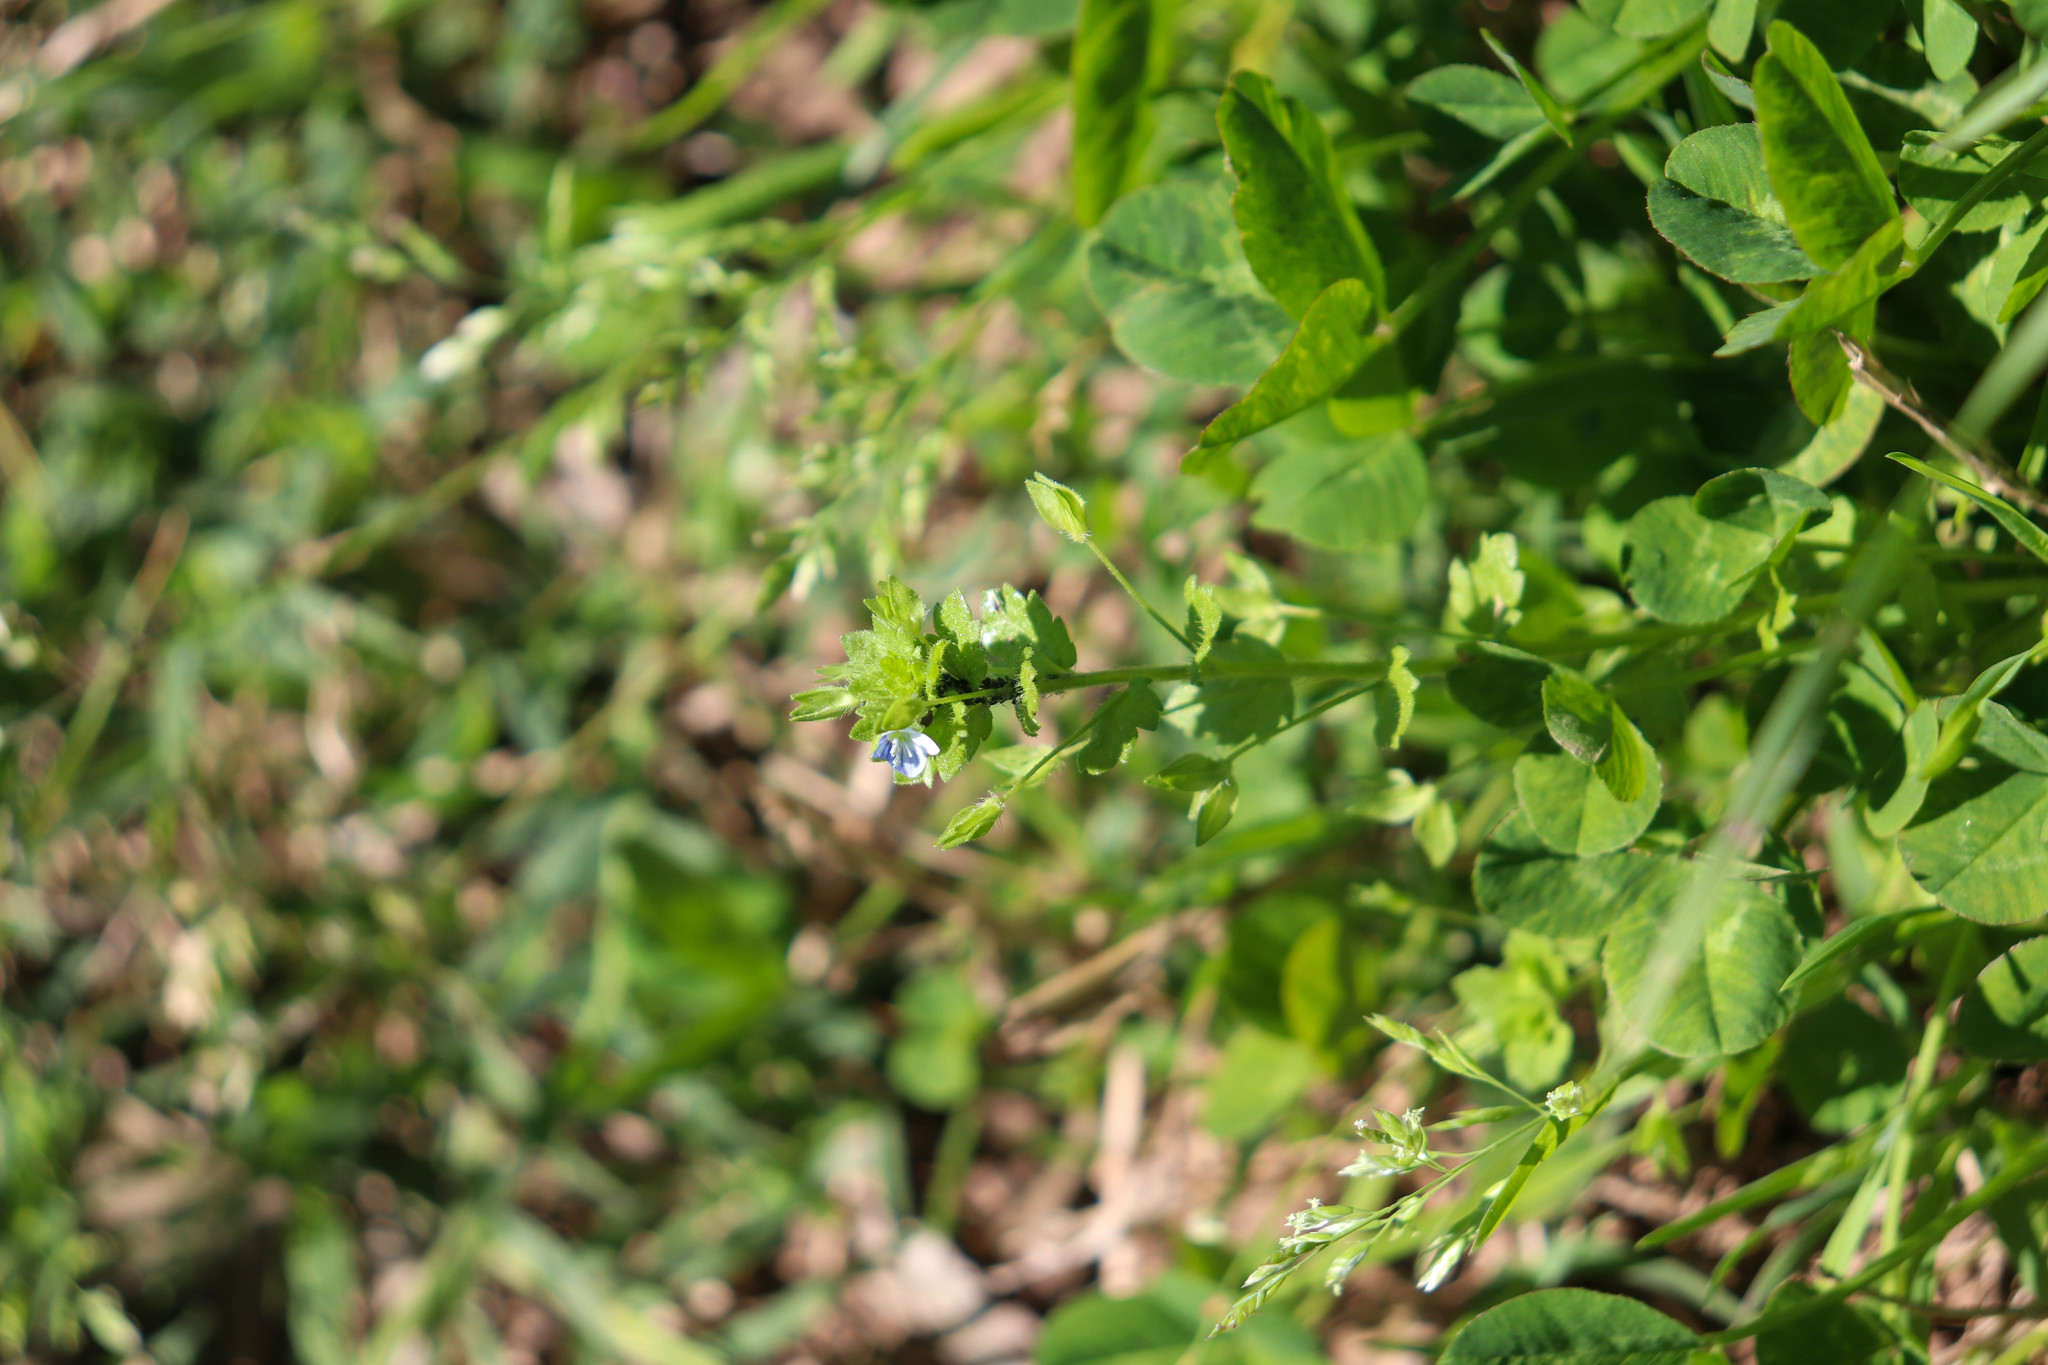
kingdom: Plantae
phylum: Tracheophyta
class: Magnoliopsida
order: Lamiales
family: Plantaginaceae
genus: Veronica
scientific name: Veronica persica
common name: Common field-speedwell
